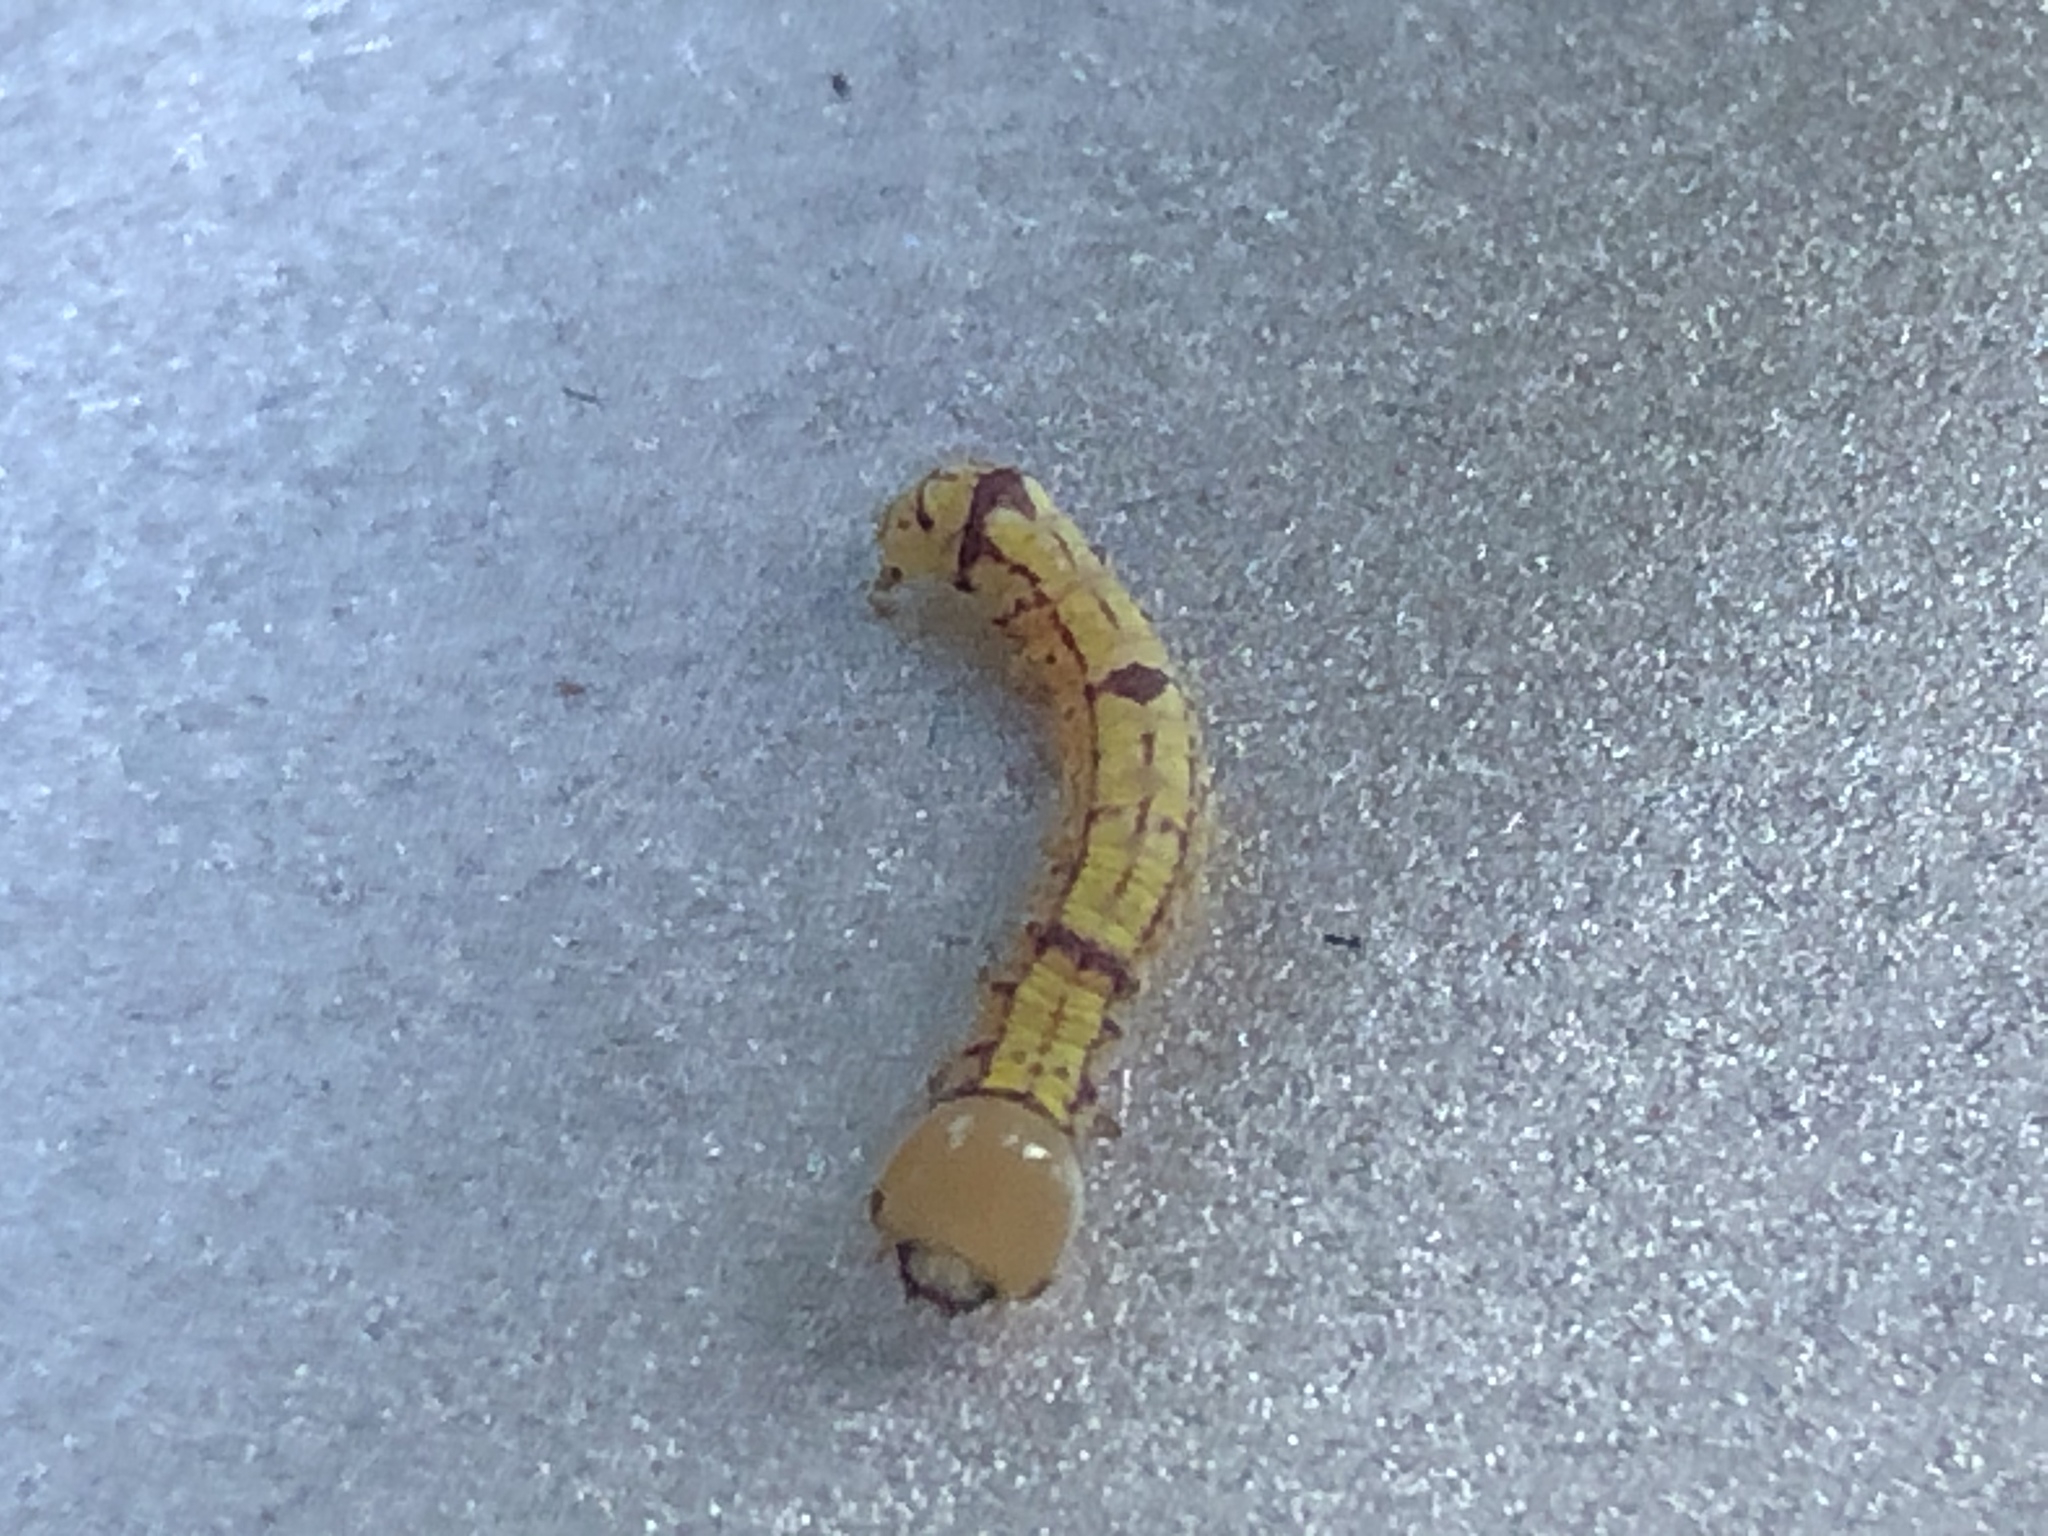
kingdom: Animalia
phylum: Arthropoda
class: Insecta
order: Lepidoptera
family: Notodontidae
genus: Phryganidia
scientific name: Phryganidia californica
